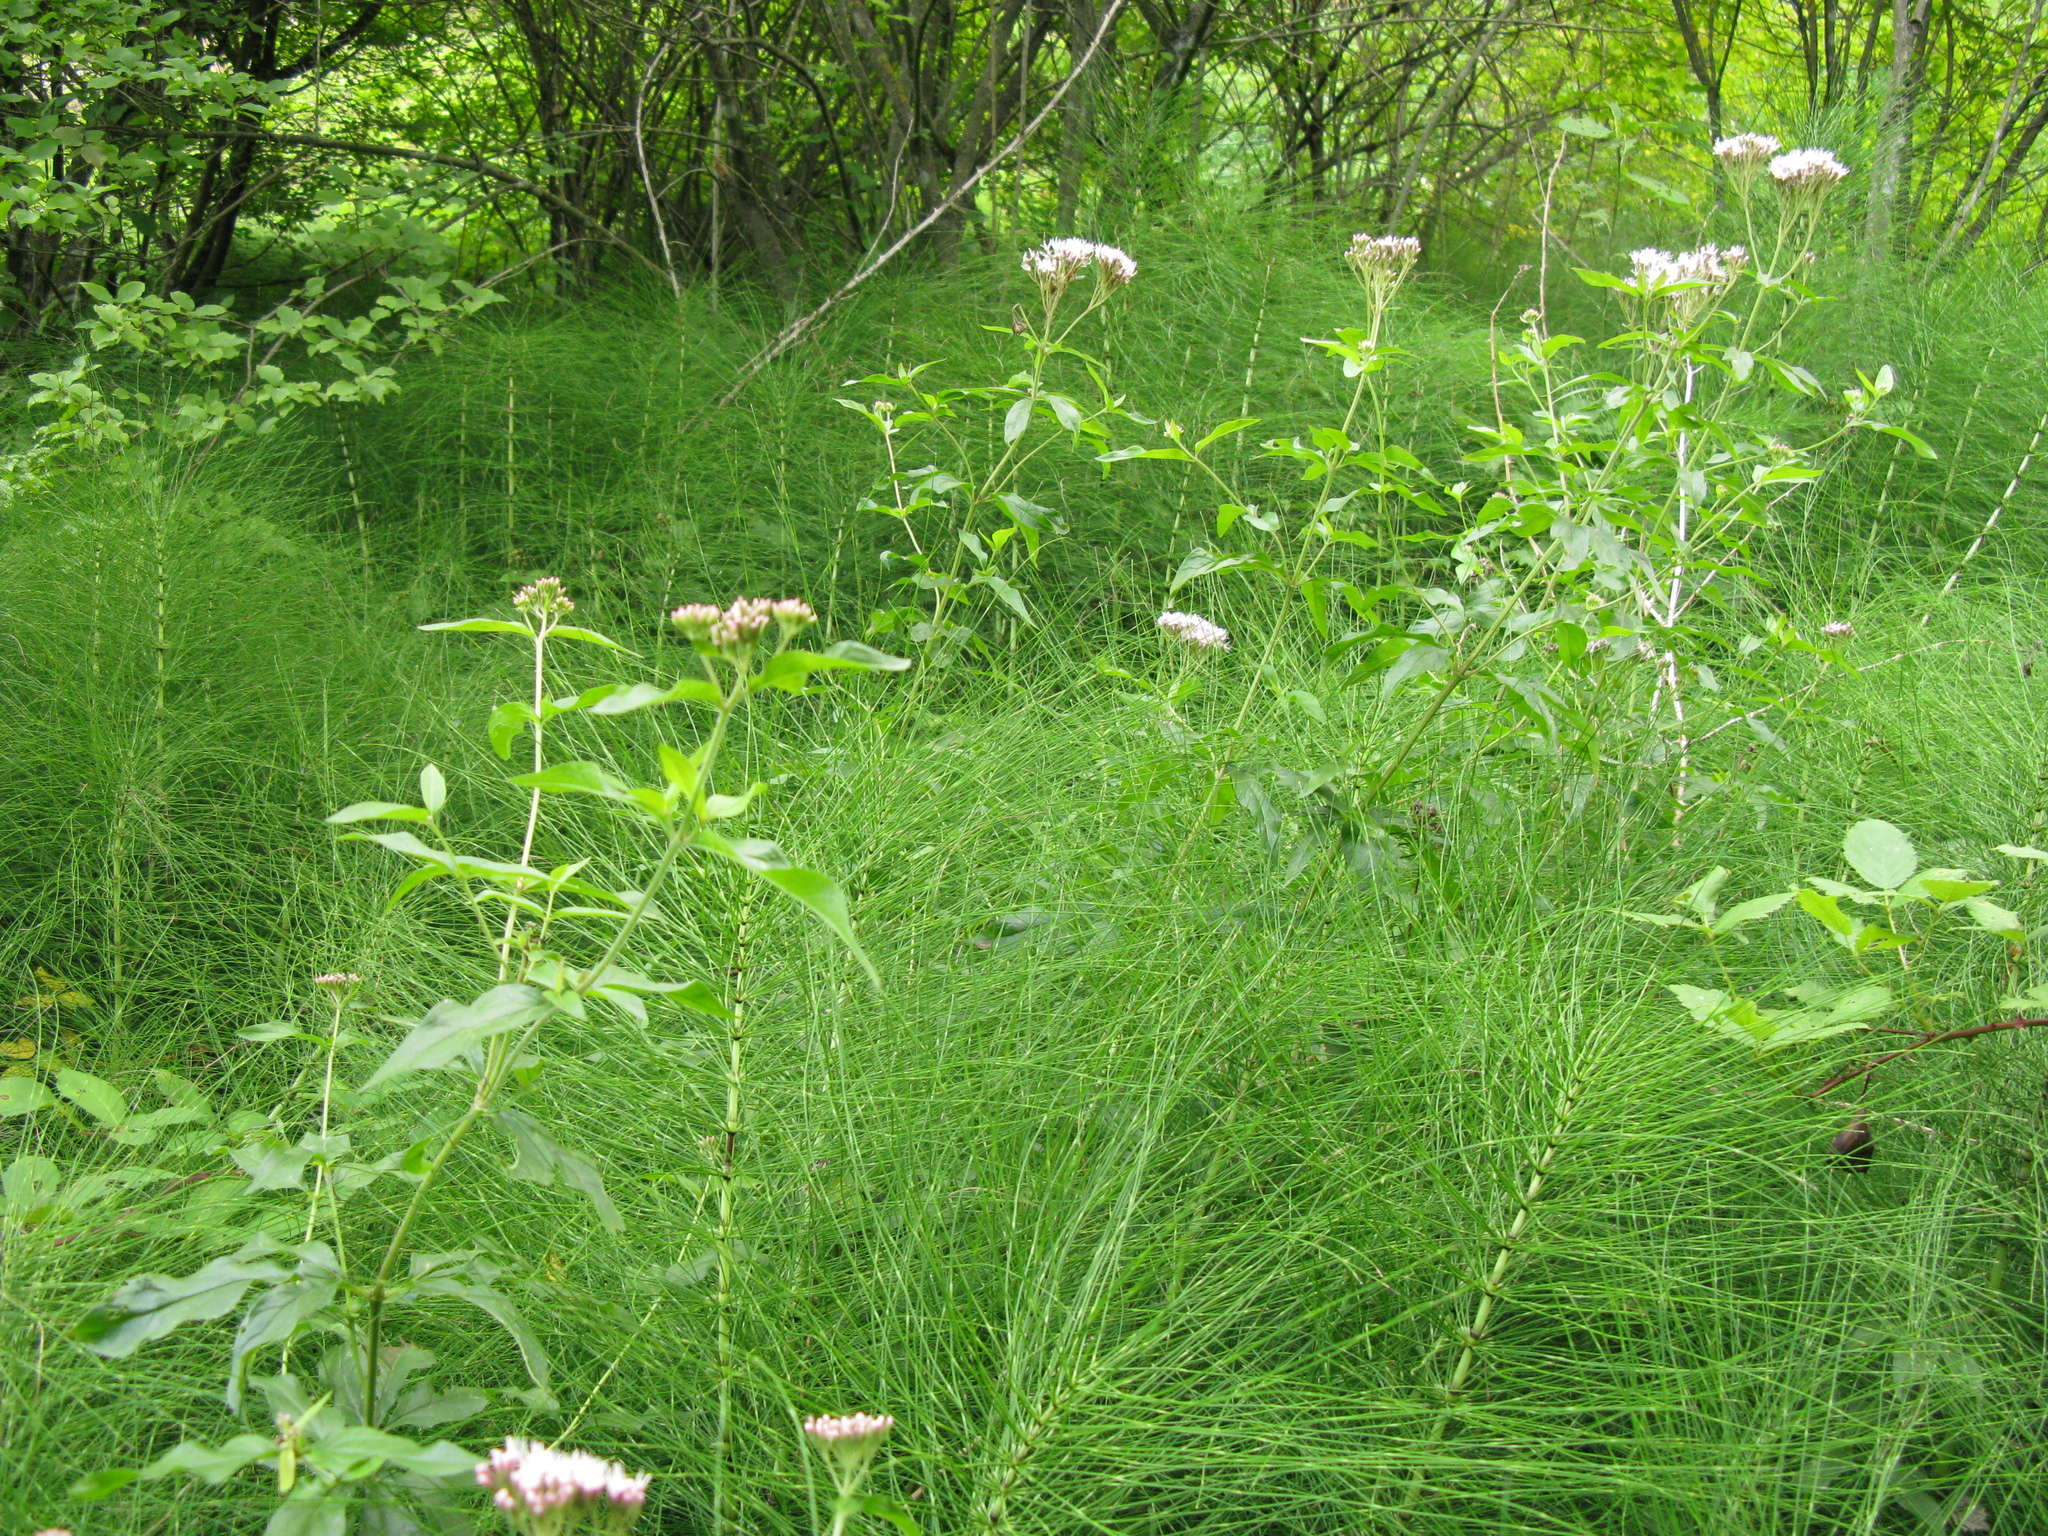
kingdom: Plantae
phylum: Tracheophyta
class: Magnoliopsida
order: Asterales
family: Asteraceae
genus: Eupatorium
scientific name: Eupatorium cannabinum
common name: Hemp-agrimony
